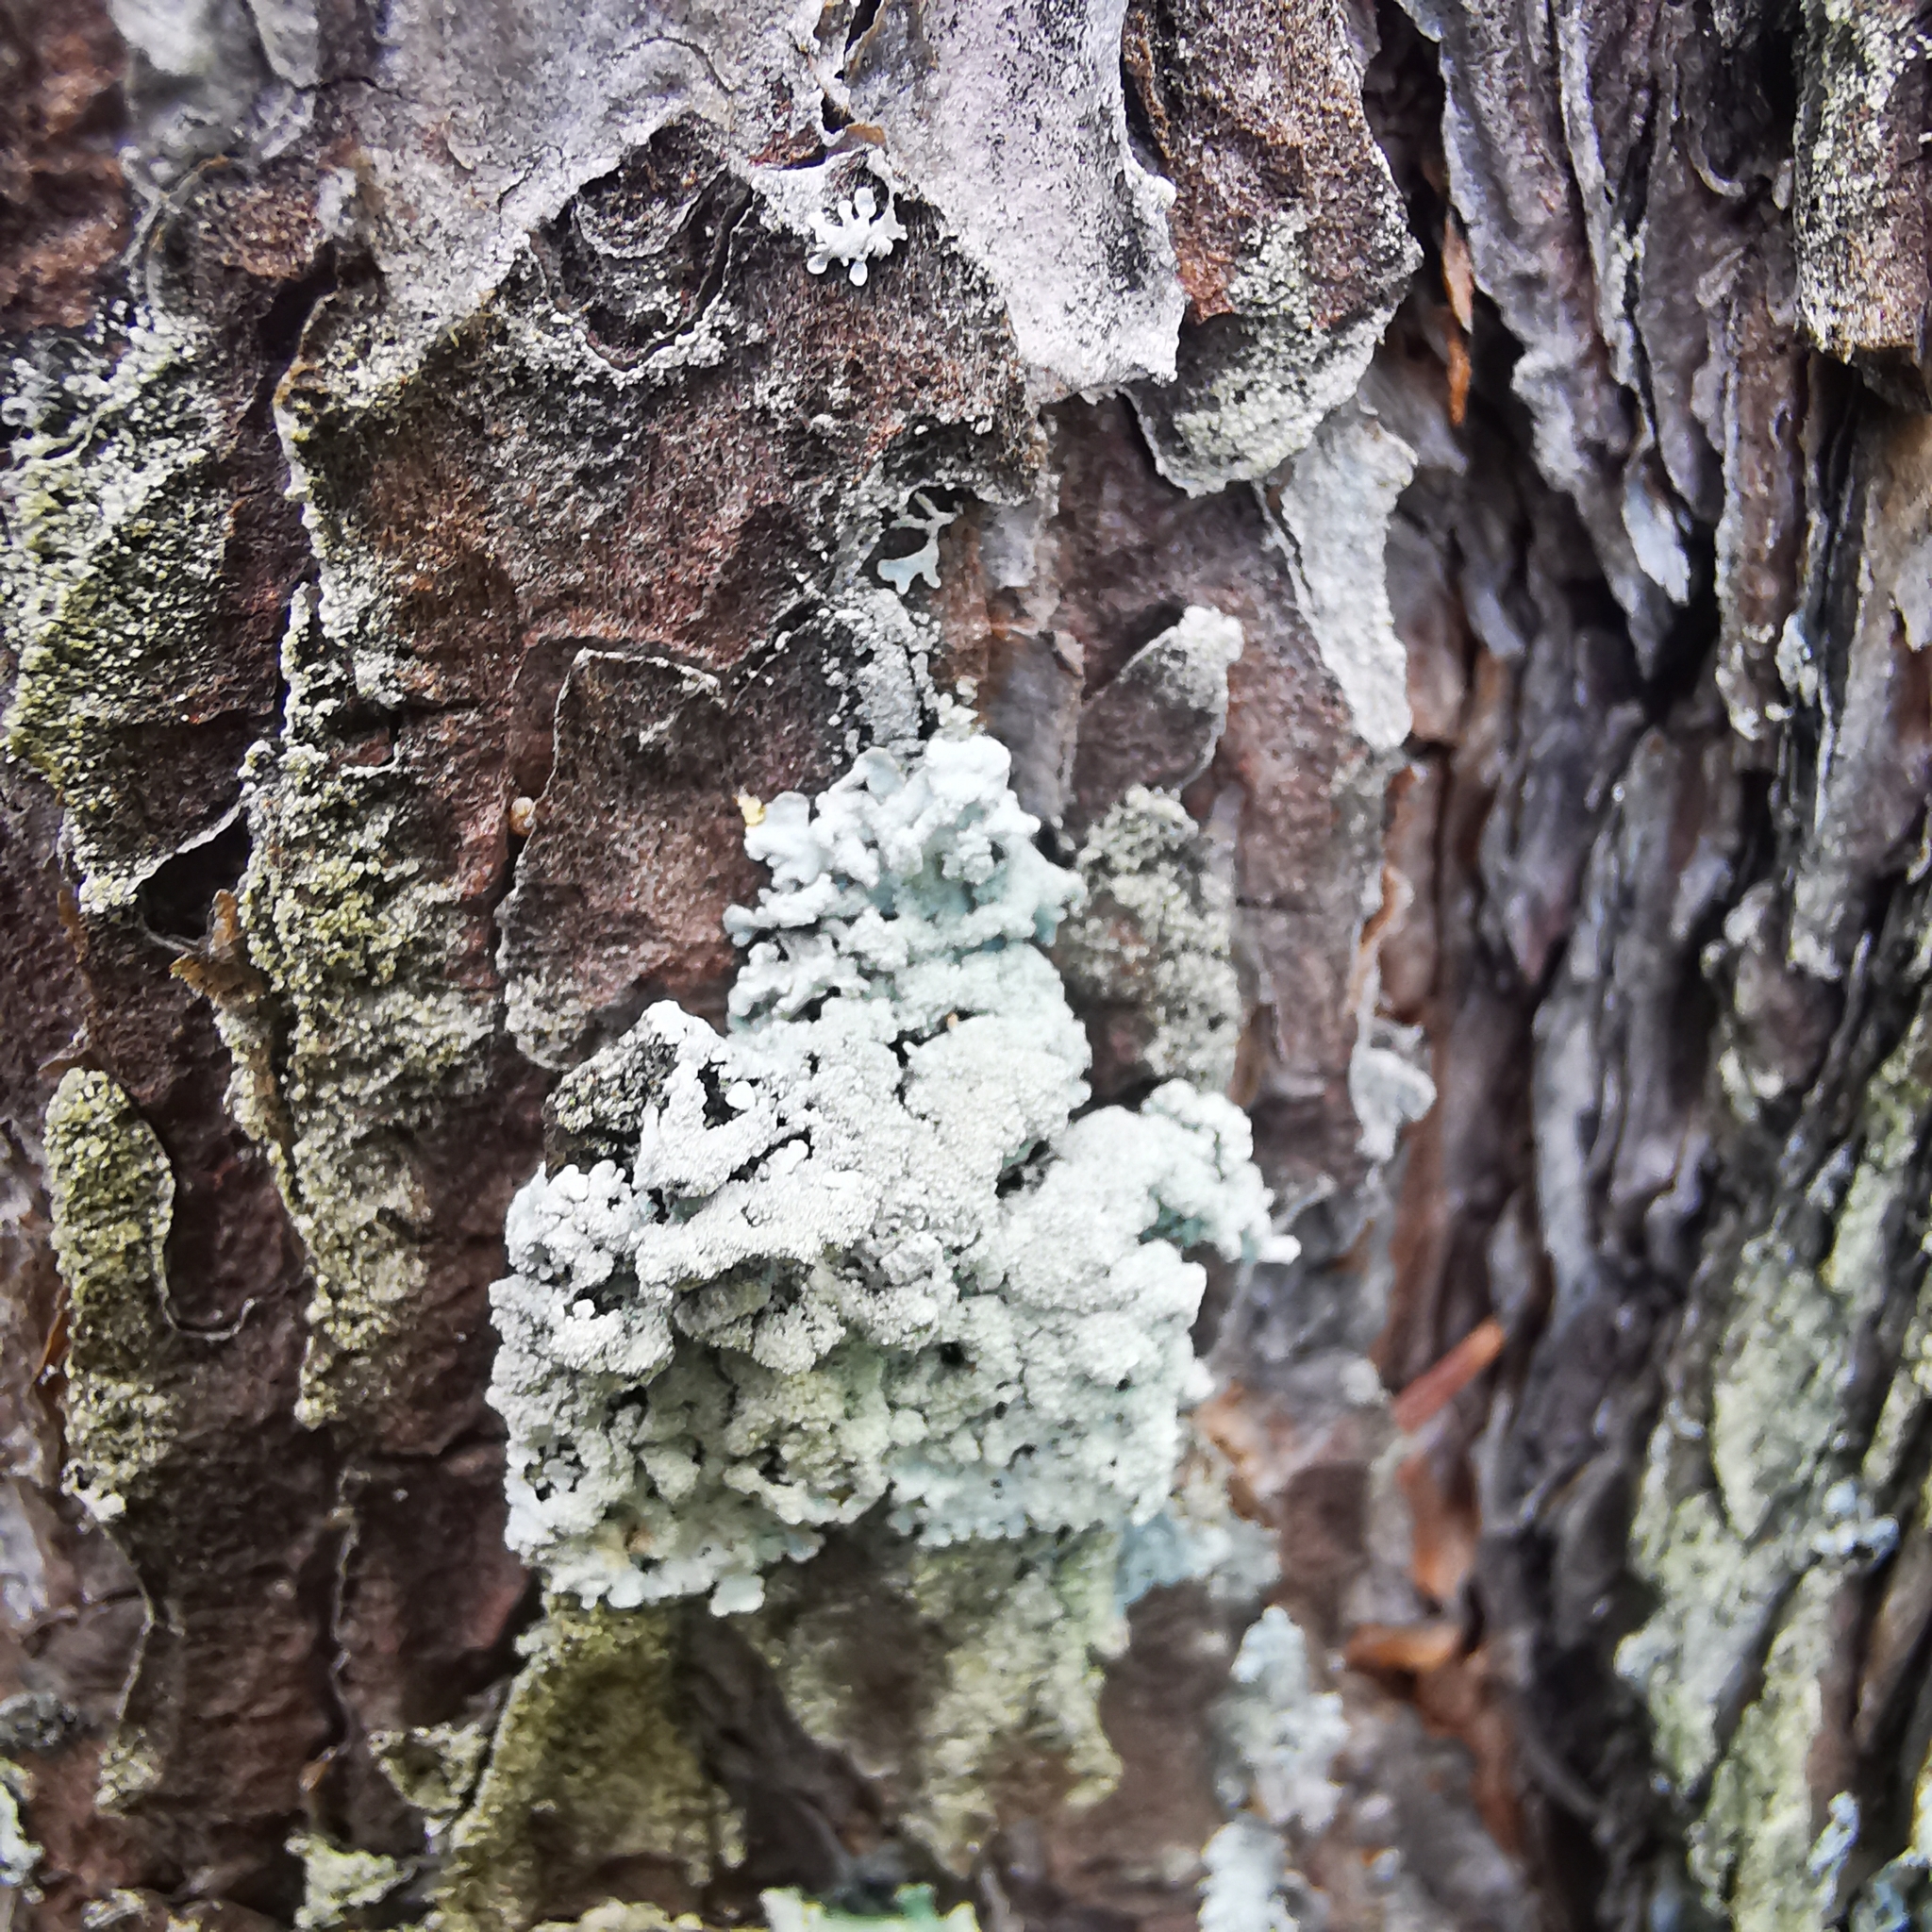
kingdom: Fungi
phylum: Ascomycota
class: Lecanoromycetes
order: Lecanorales
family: Parmeliaceae
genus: Imshaugia
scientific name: Imshaugia aleurites
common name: Salted starburst lichen
